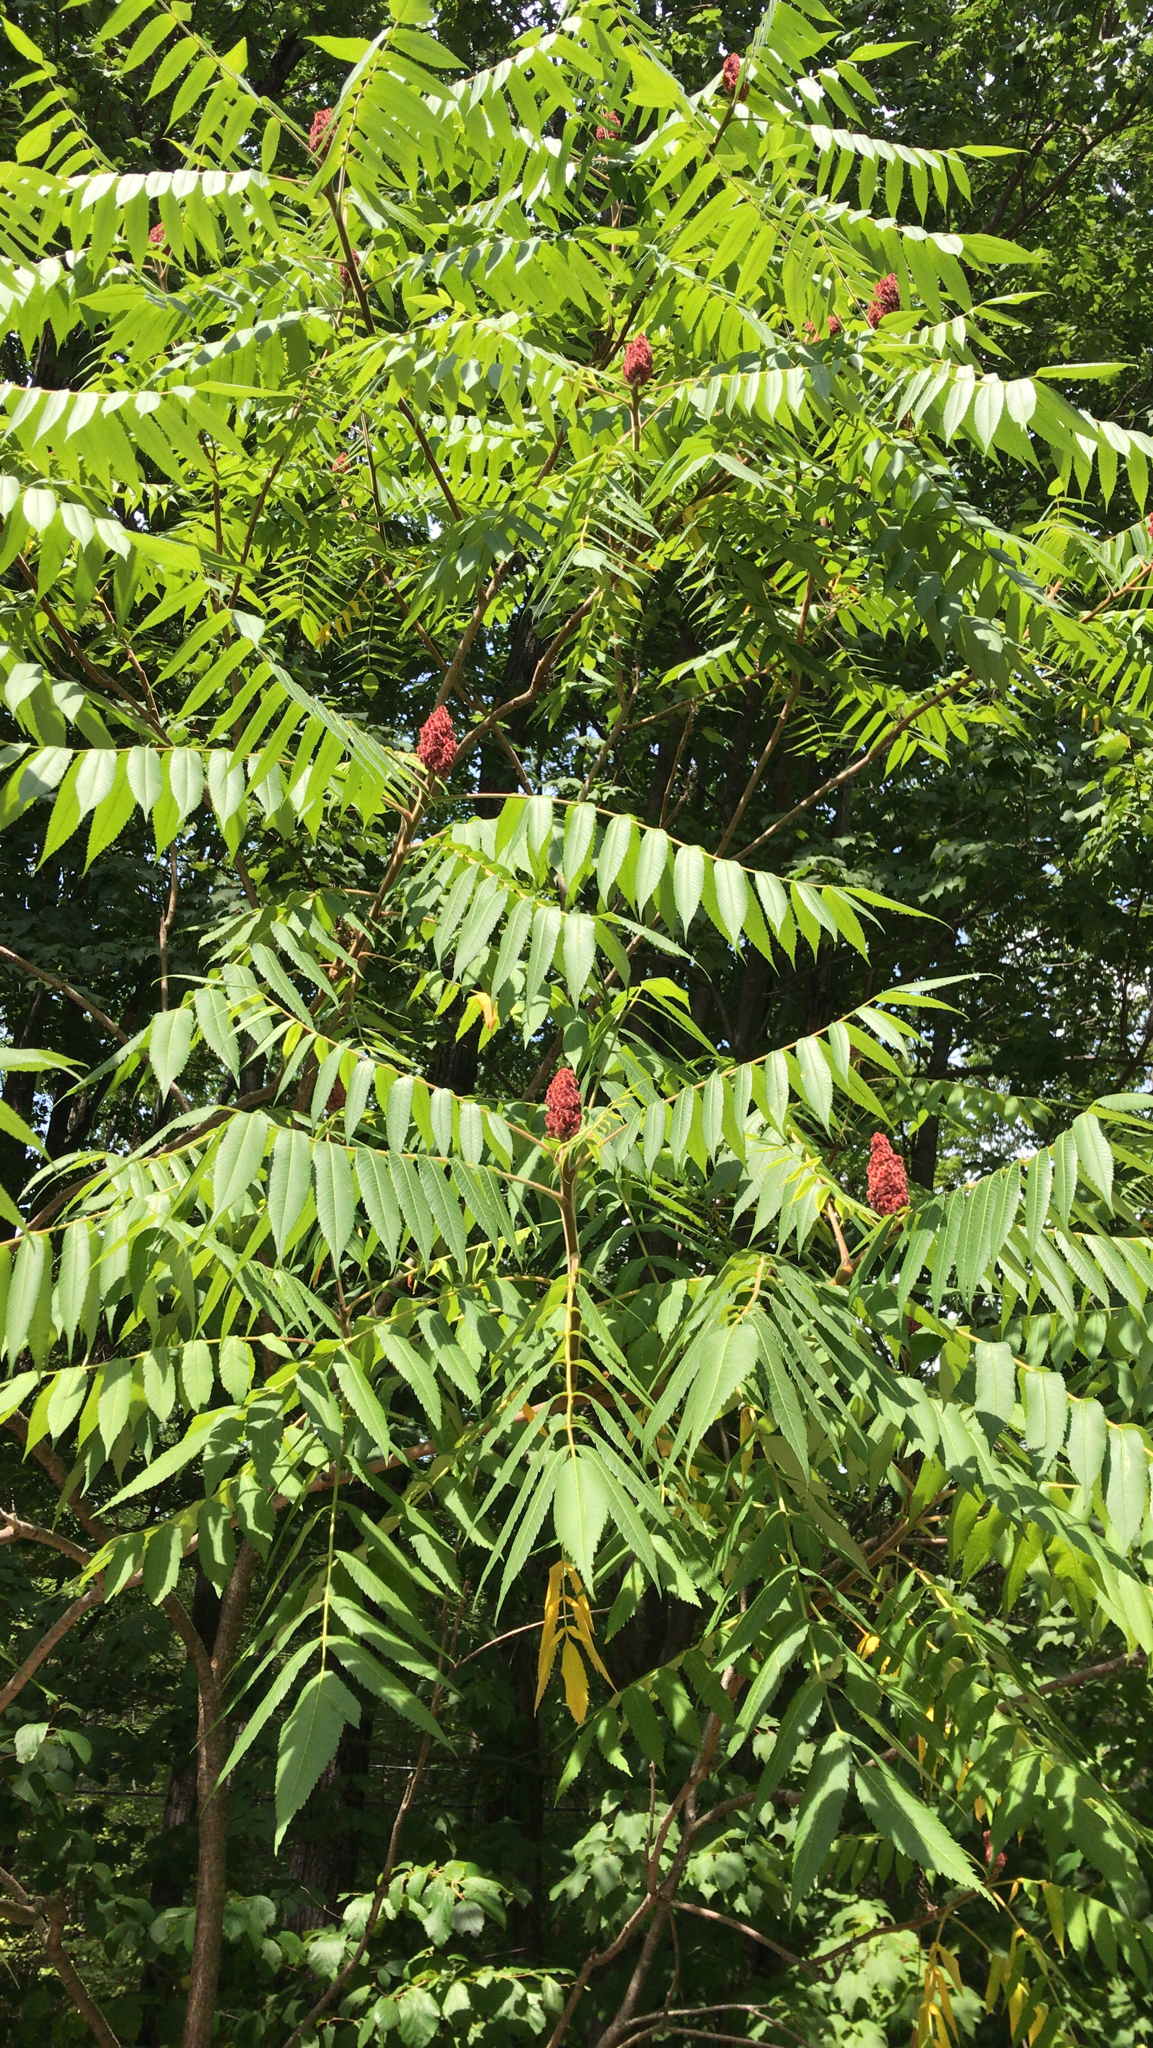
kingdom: Plantae
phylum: Tracheophyta
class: Magnoliopsida
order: Sapindales
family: Anacardiaceae
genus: Rhus
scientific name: Rhus typhina
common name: Staghorn sumac
